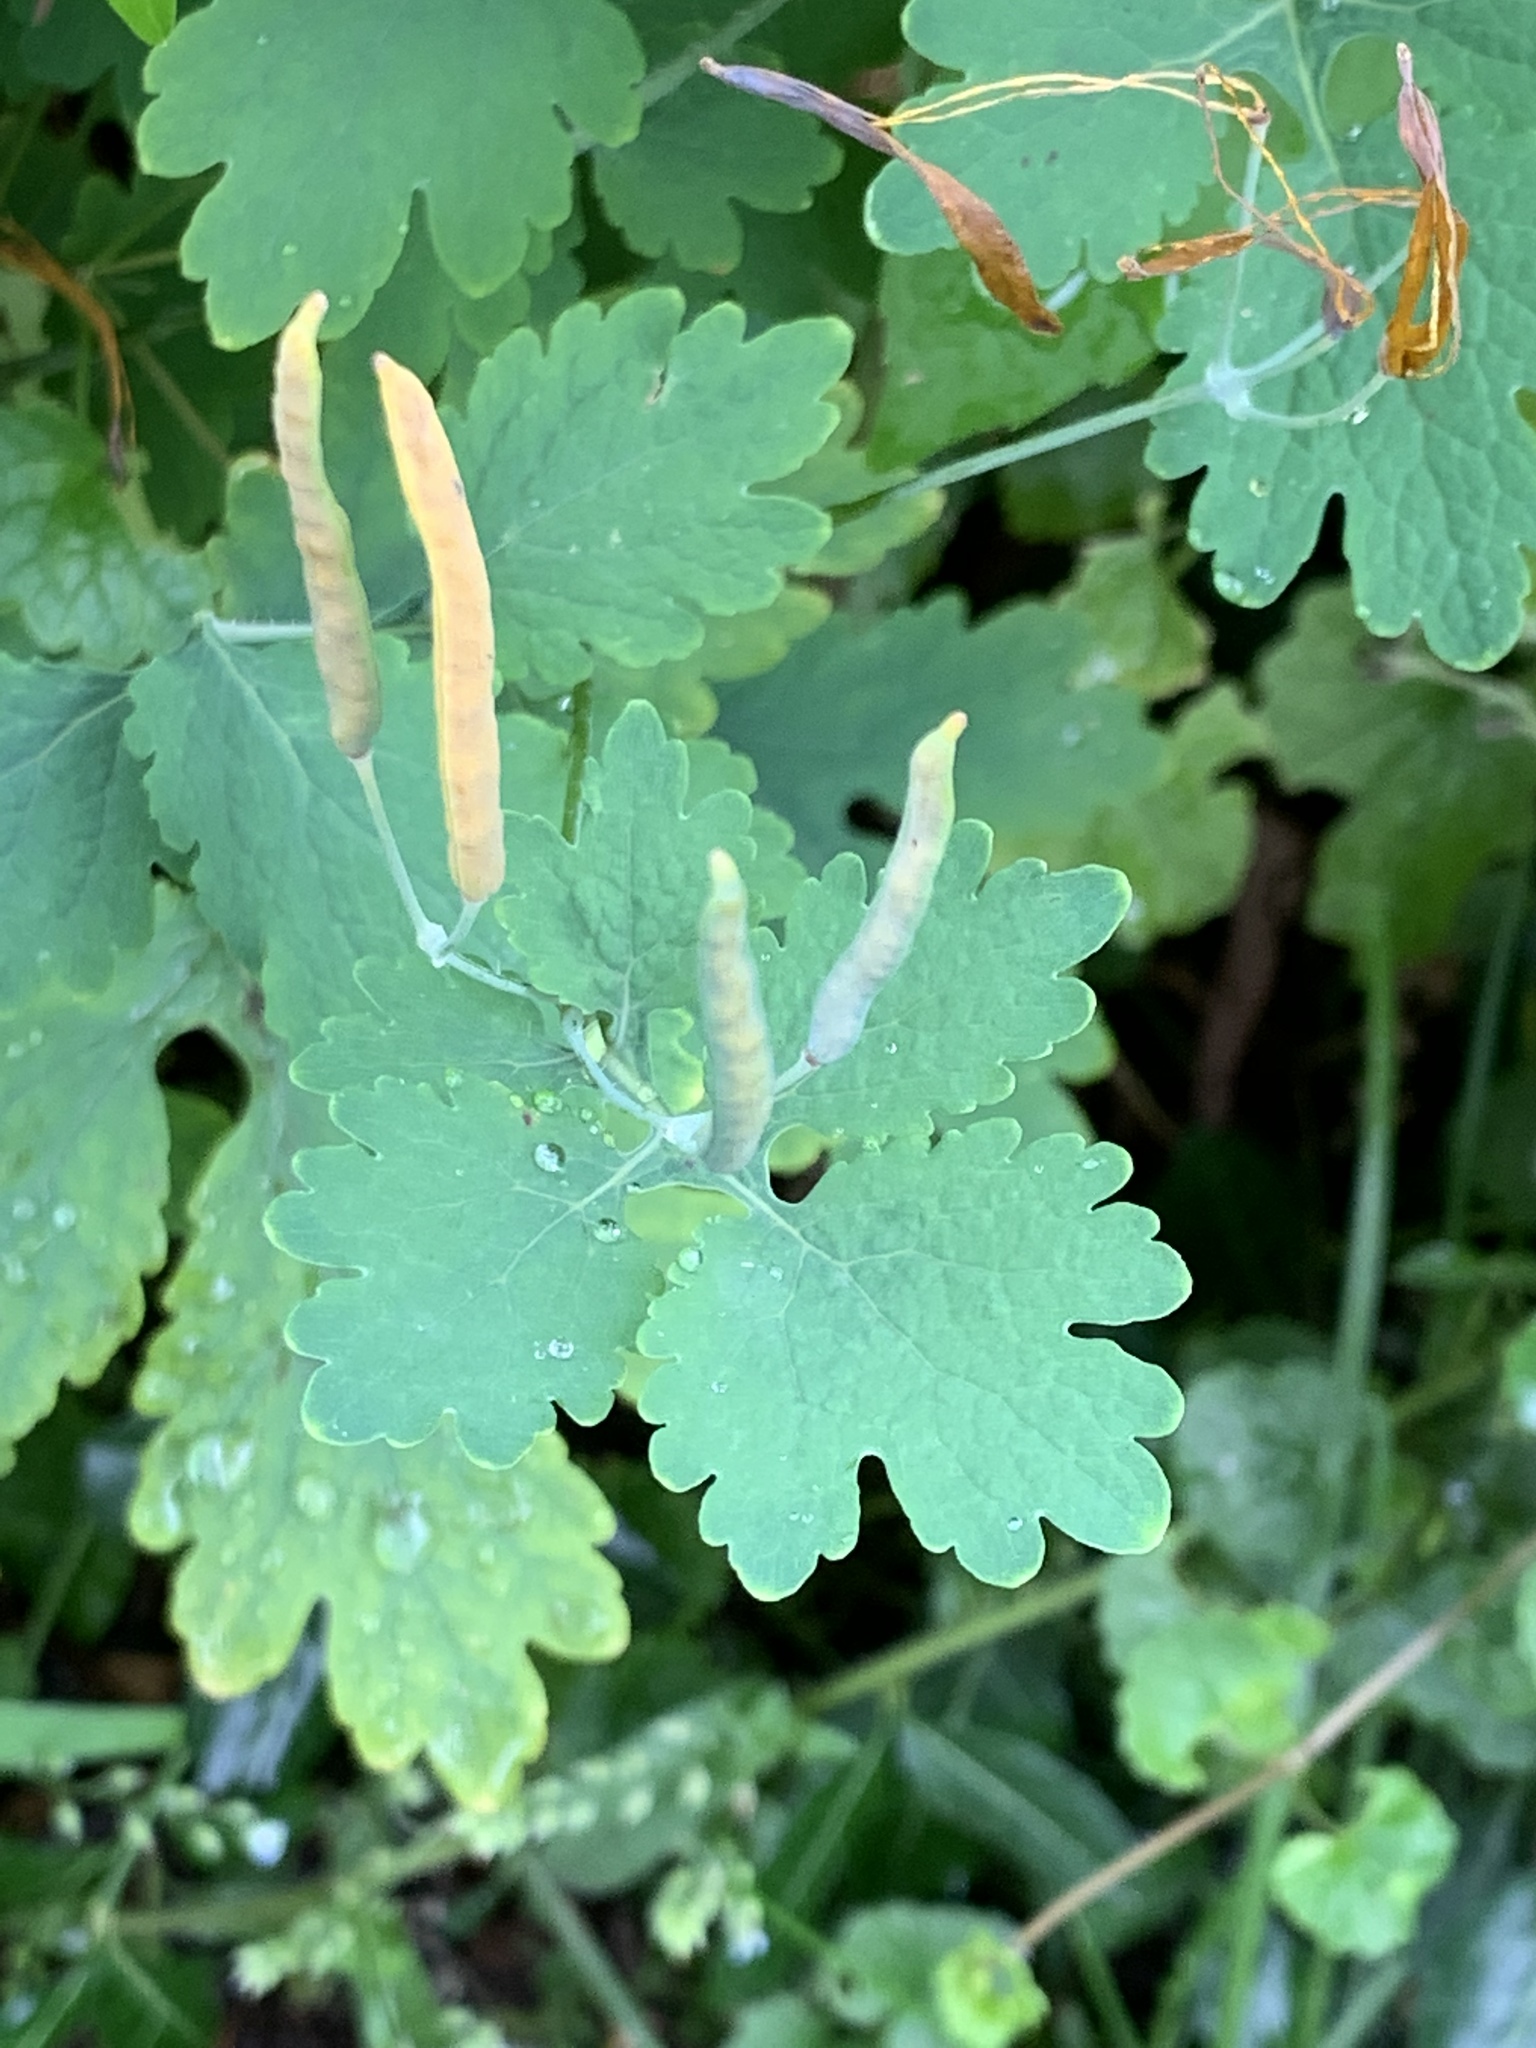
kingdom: Plantae
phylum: Tracheophyta
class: Magnoliopsida
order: Ranunculales
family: Papaveraceae
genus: Chelidonium
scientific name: Chelidonium majus
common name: Greater celandine
